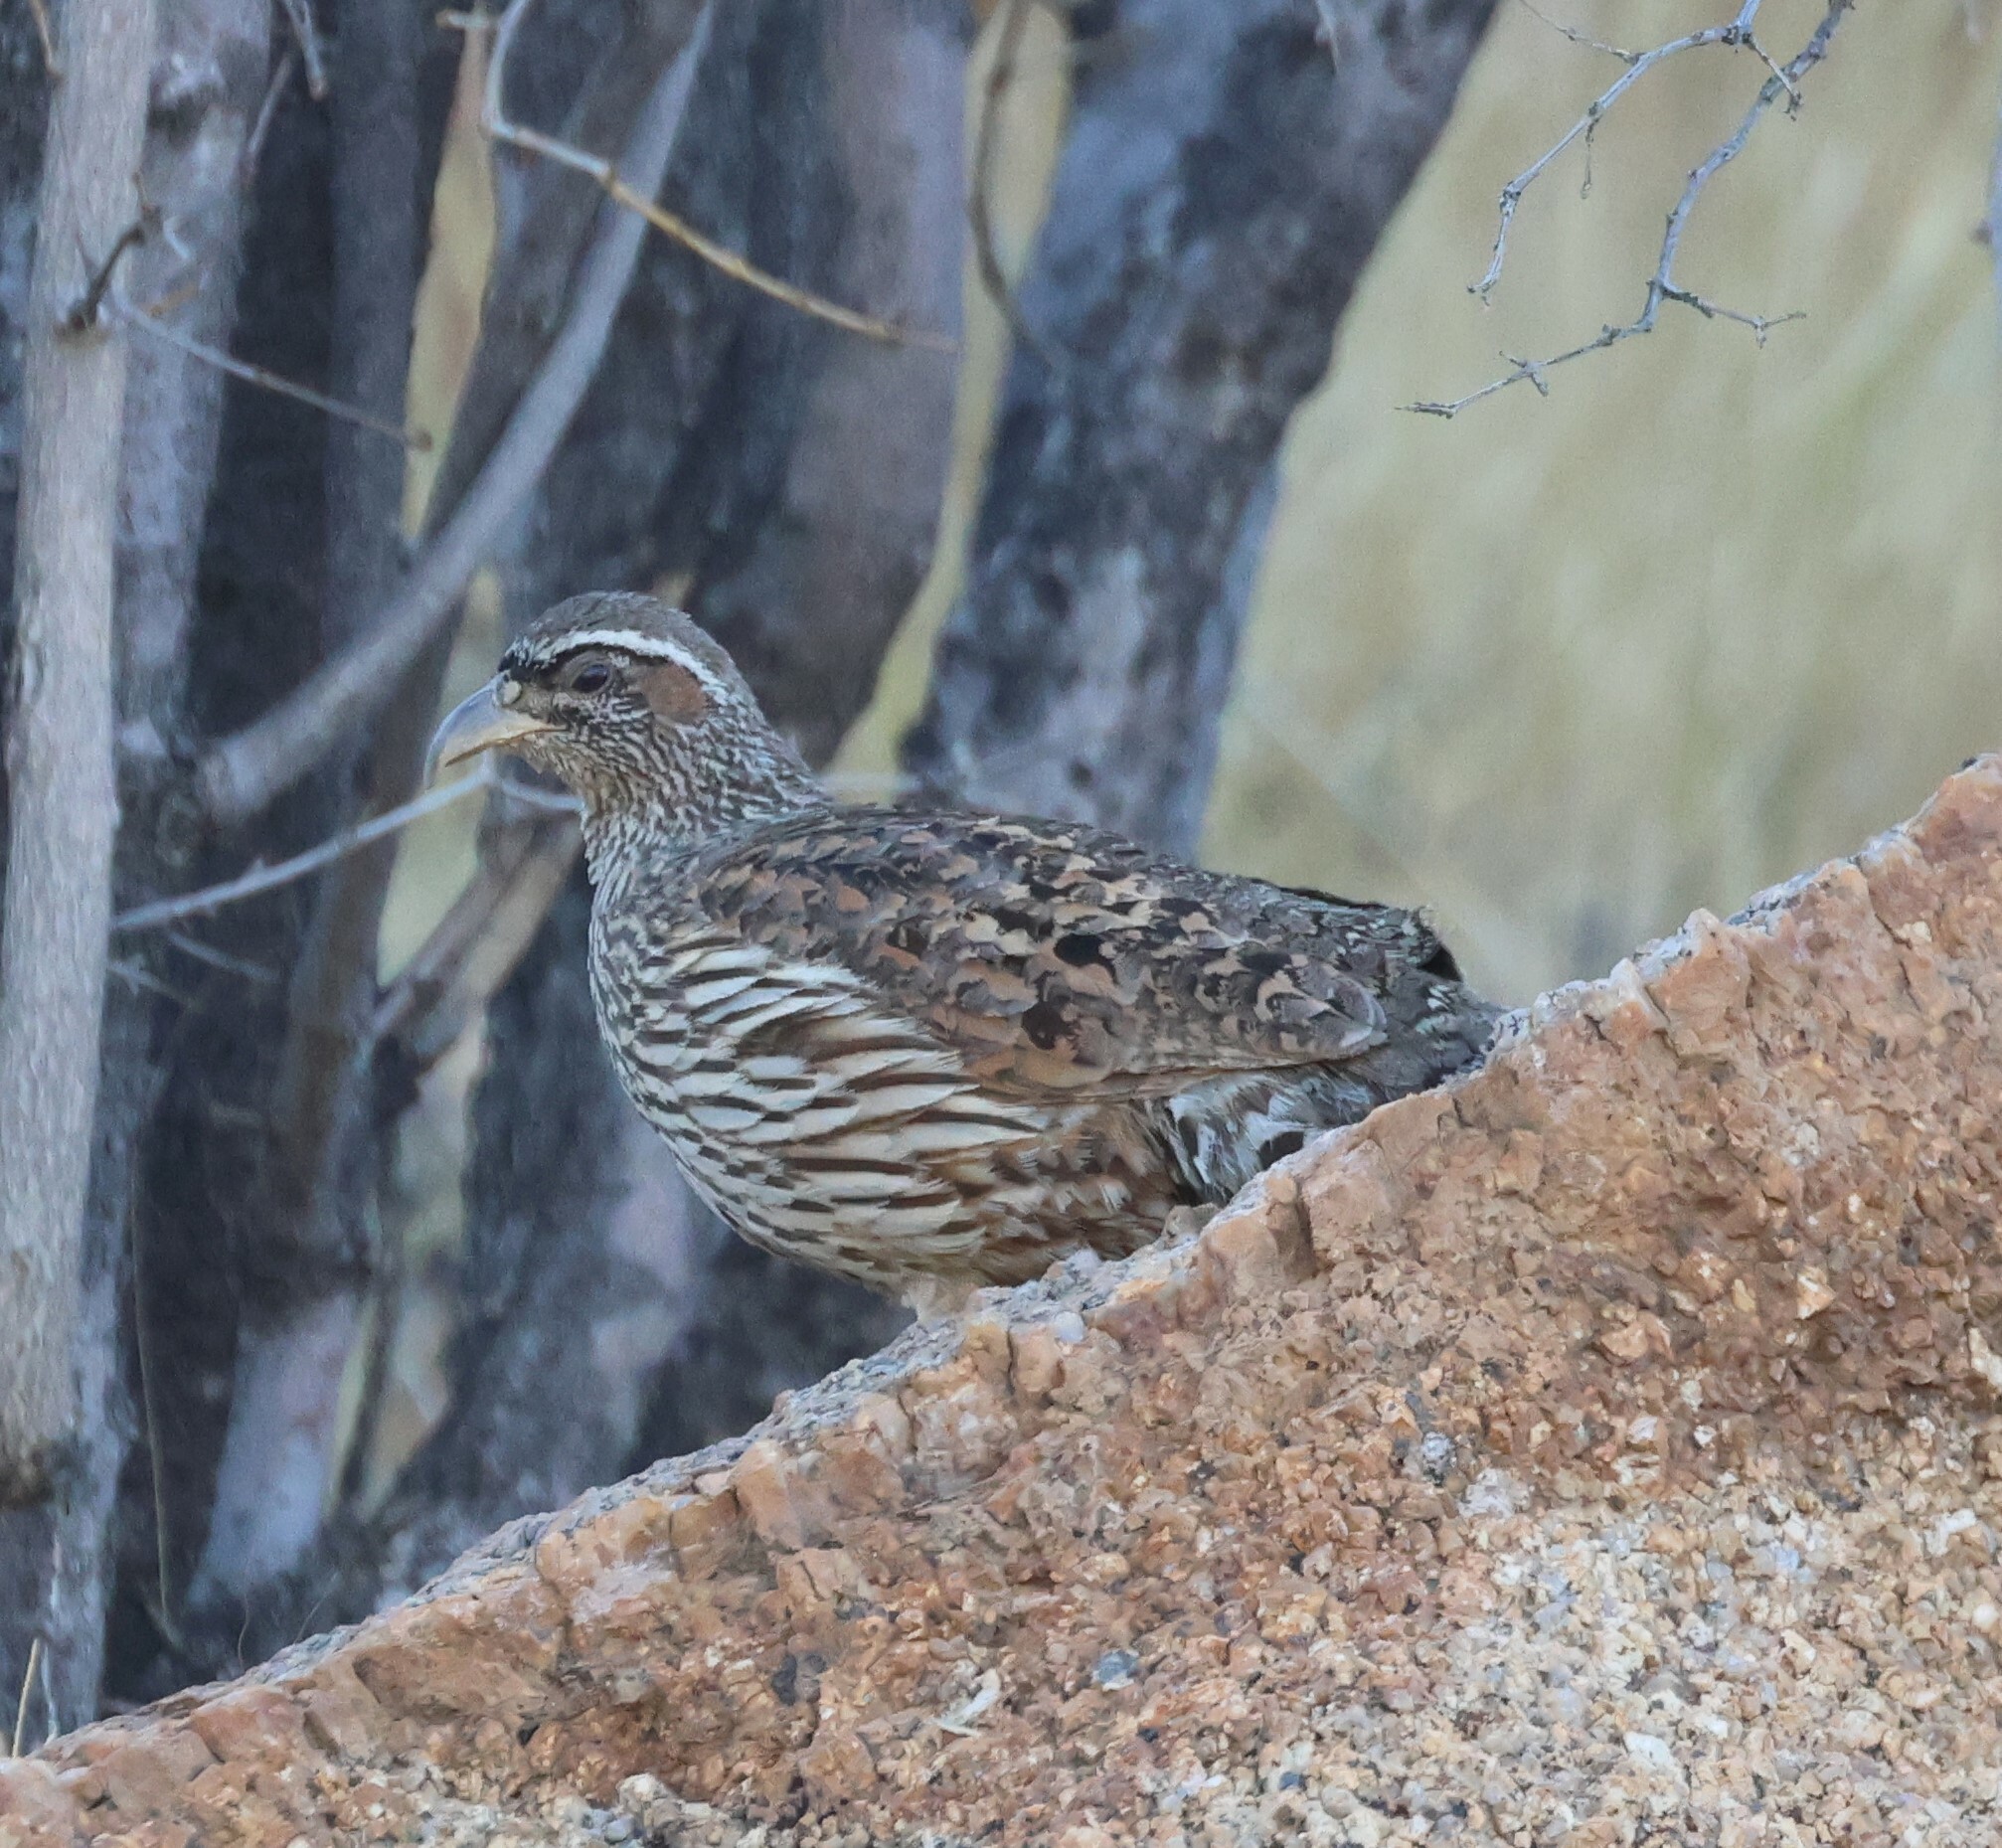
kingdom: Animalia
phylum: Chordata
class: Aves
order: Galliformes
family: Phasianidae
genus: Pternistis
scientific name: Pternistis hartlaubi
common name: Hartlaub's spurfowl
